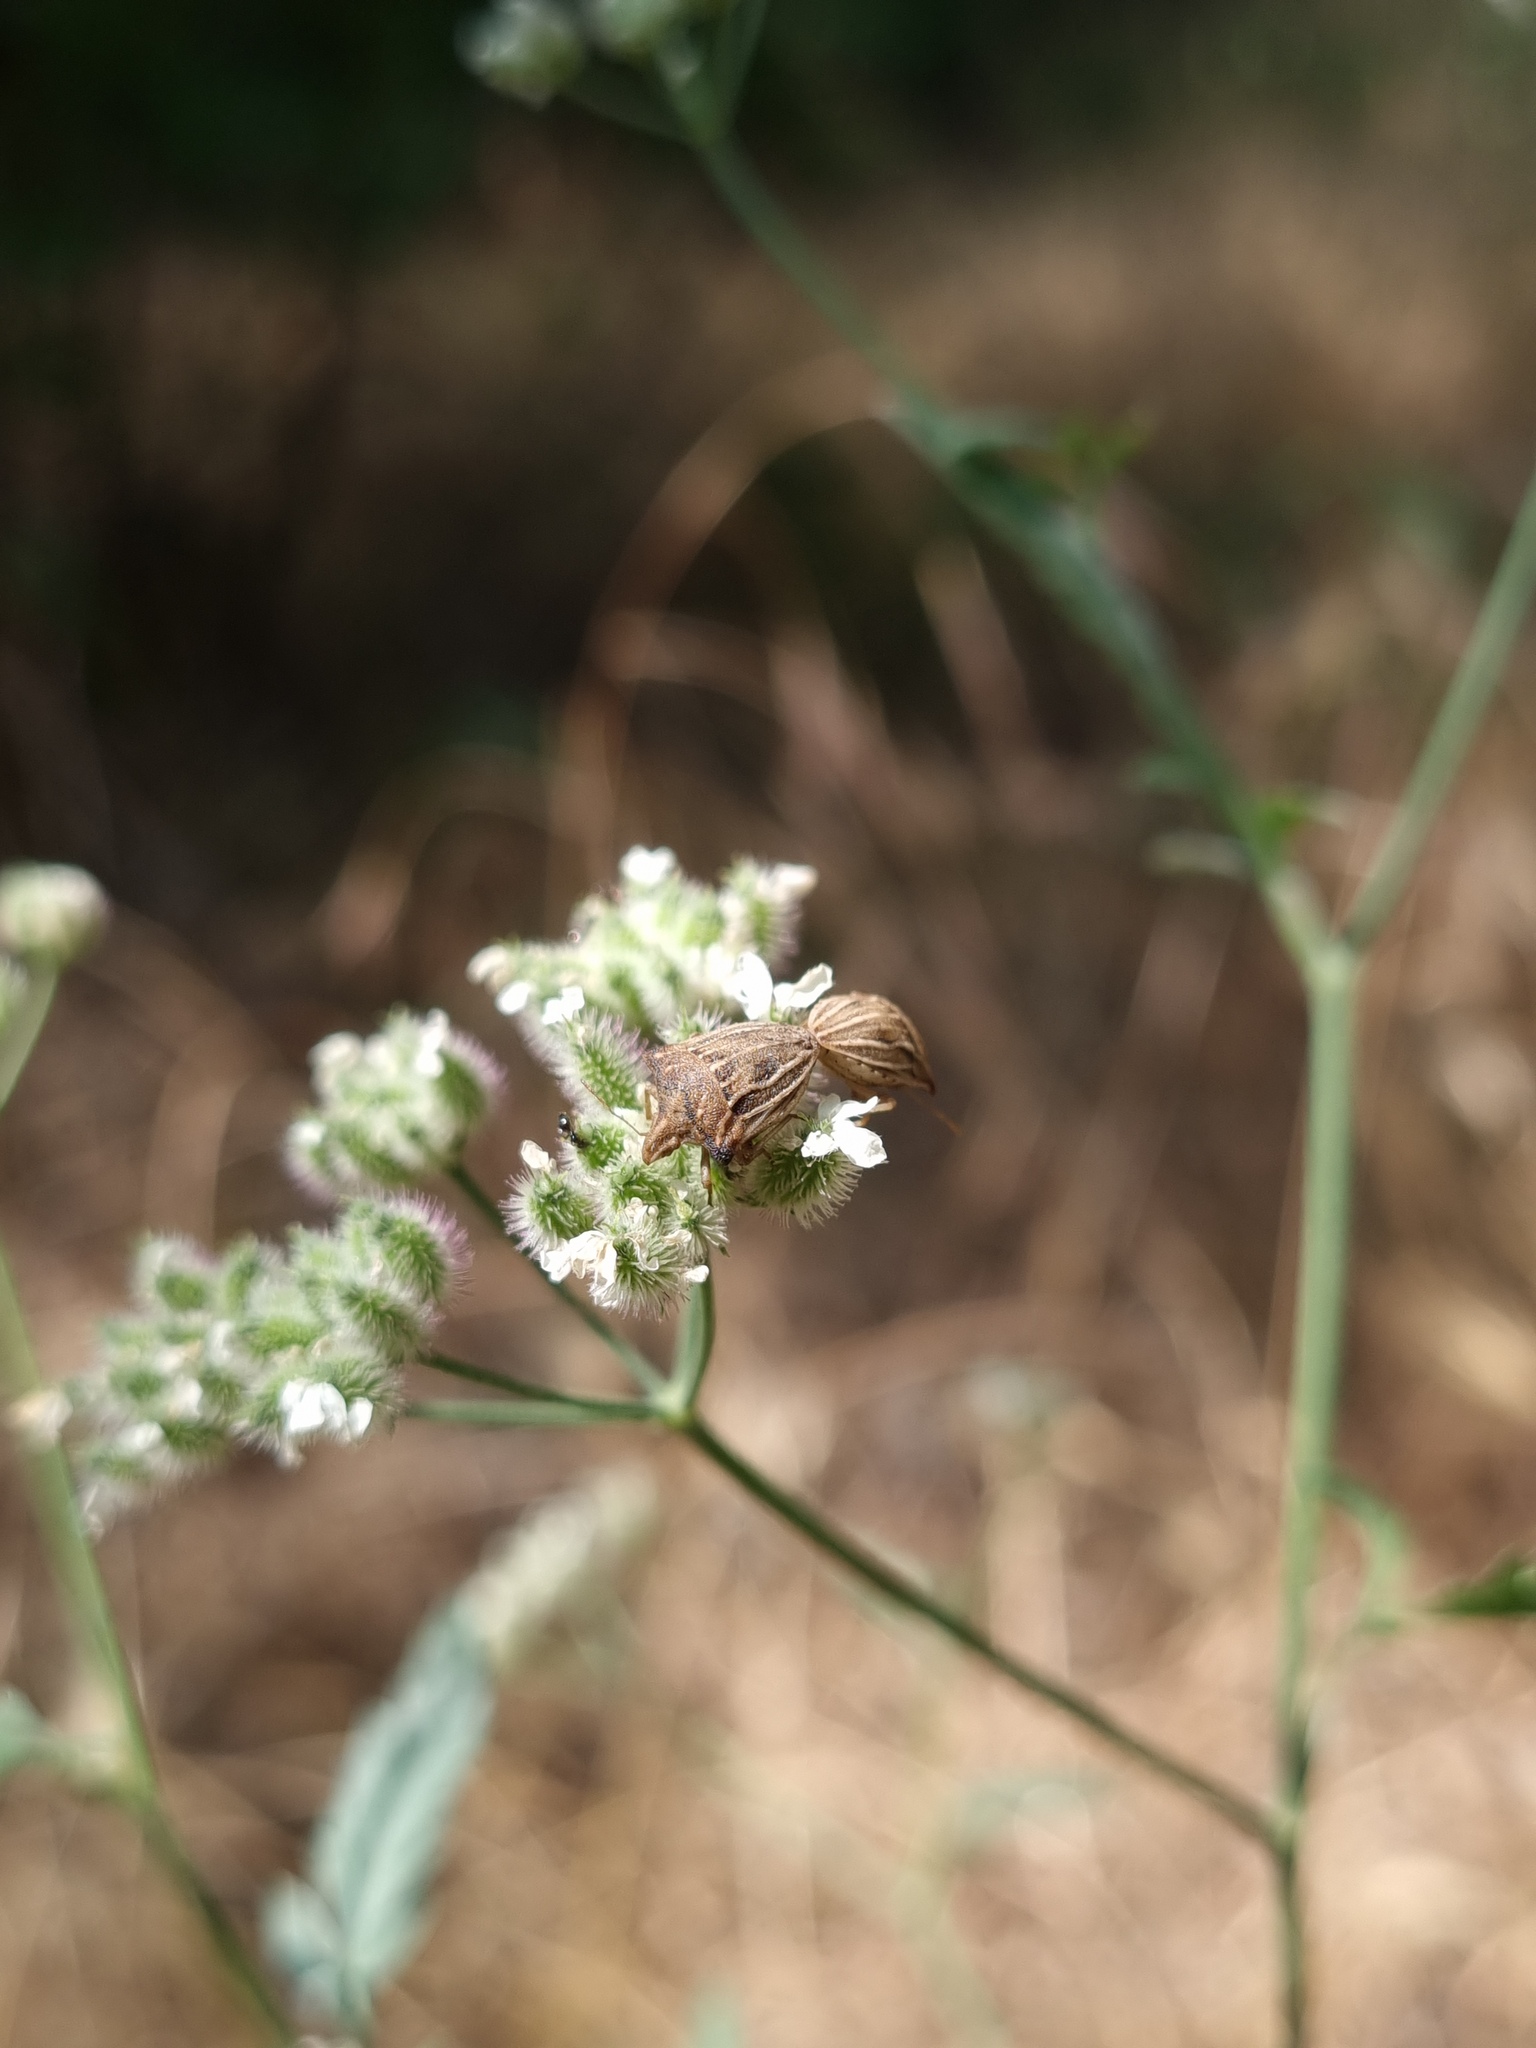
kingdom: Animalia
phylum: Arthropoda
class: Insecta
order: Hemiptera
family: Pentatomidae
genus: Ancyrosoma
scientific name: Ancyrosoma leucogrammes
